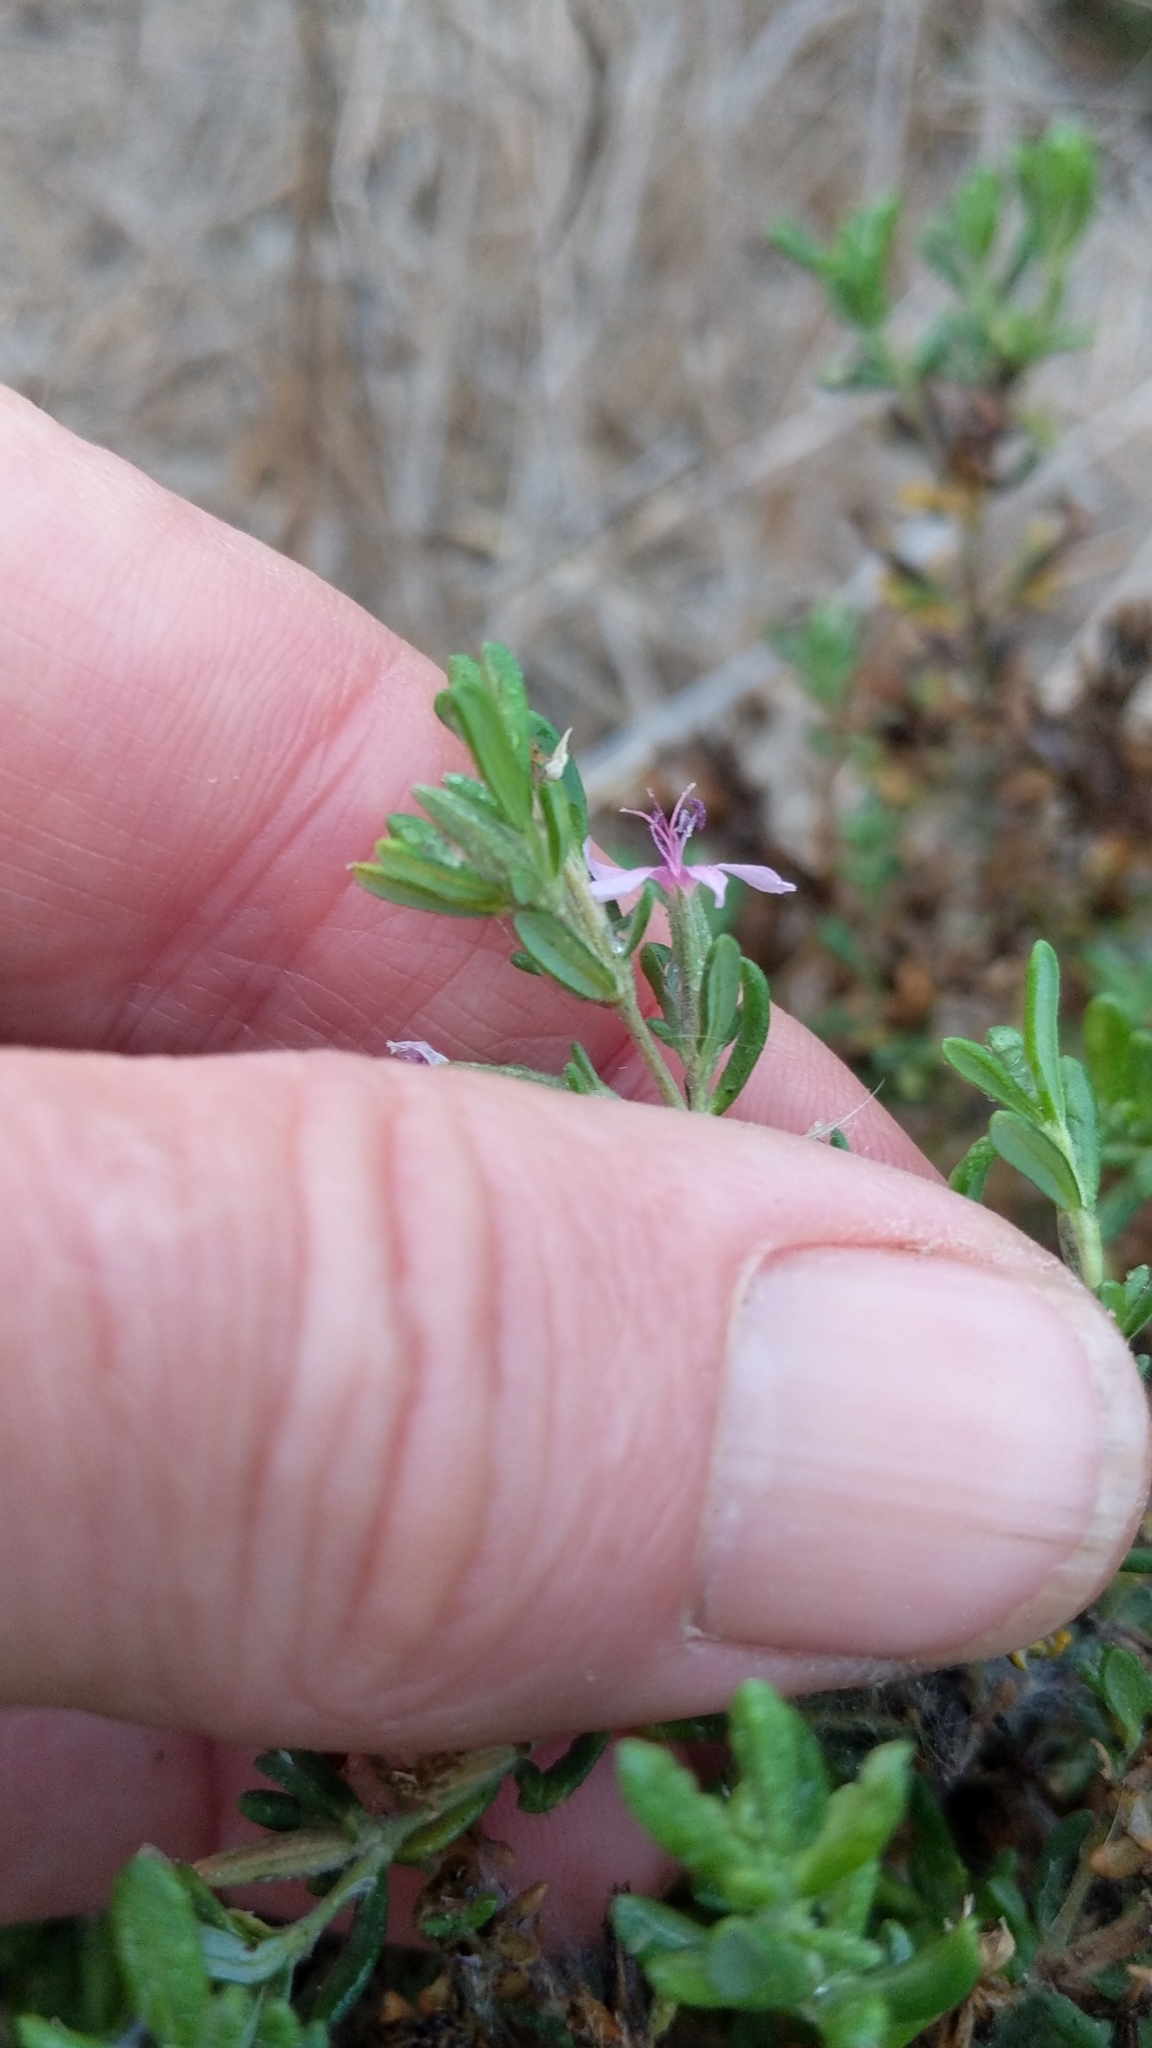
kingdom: Plantae
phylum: Tracheophyta
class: Magnoliopsida
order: Caryophyllales
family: Frankeniaceae
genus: Frankenia
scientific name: Frankenia salina
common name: Alkali seaheath
